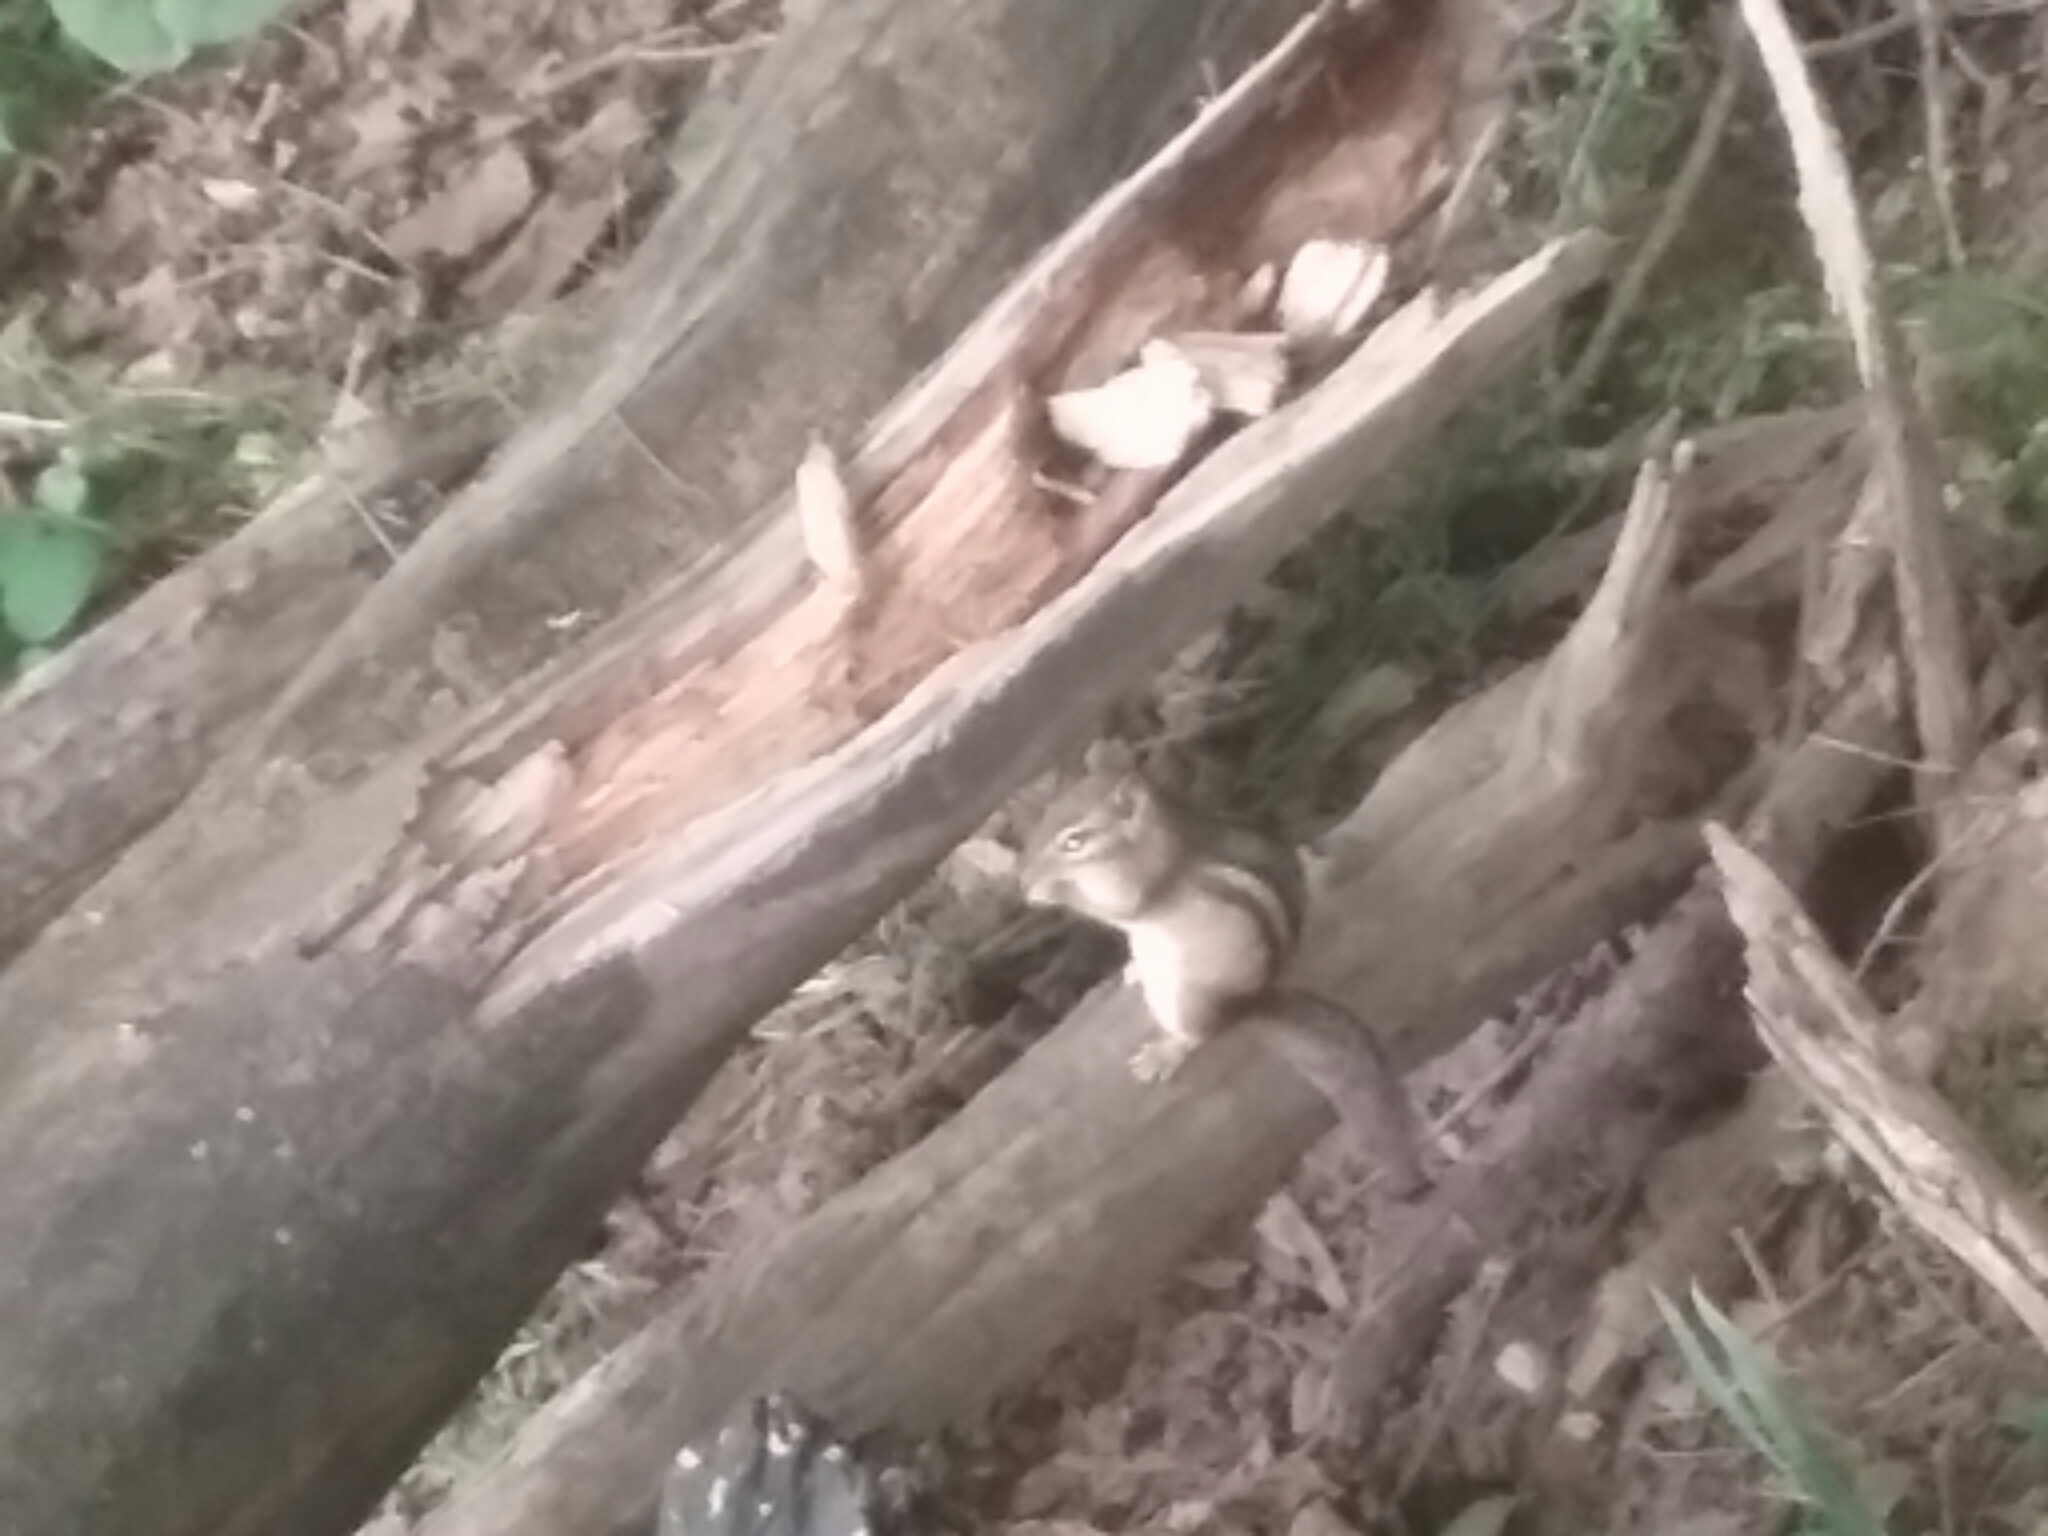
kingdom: Animalia
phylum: Chordata
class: Mammalia
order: Rodentia
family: Sciuridae
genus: Tamias
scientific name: Tamias striatus
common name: Eastern chipmunk
